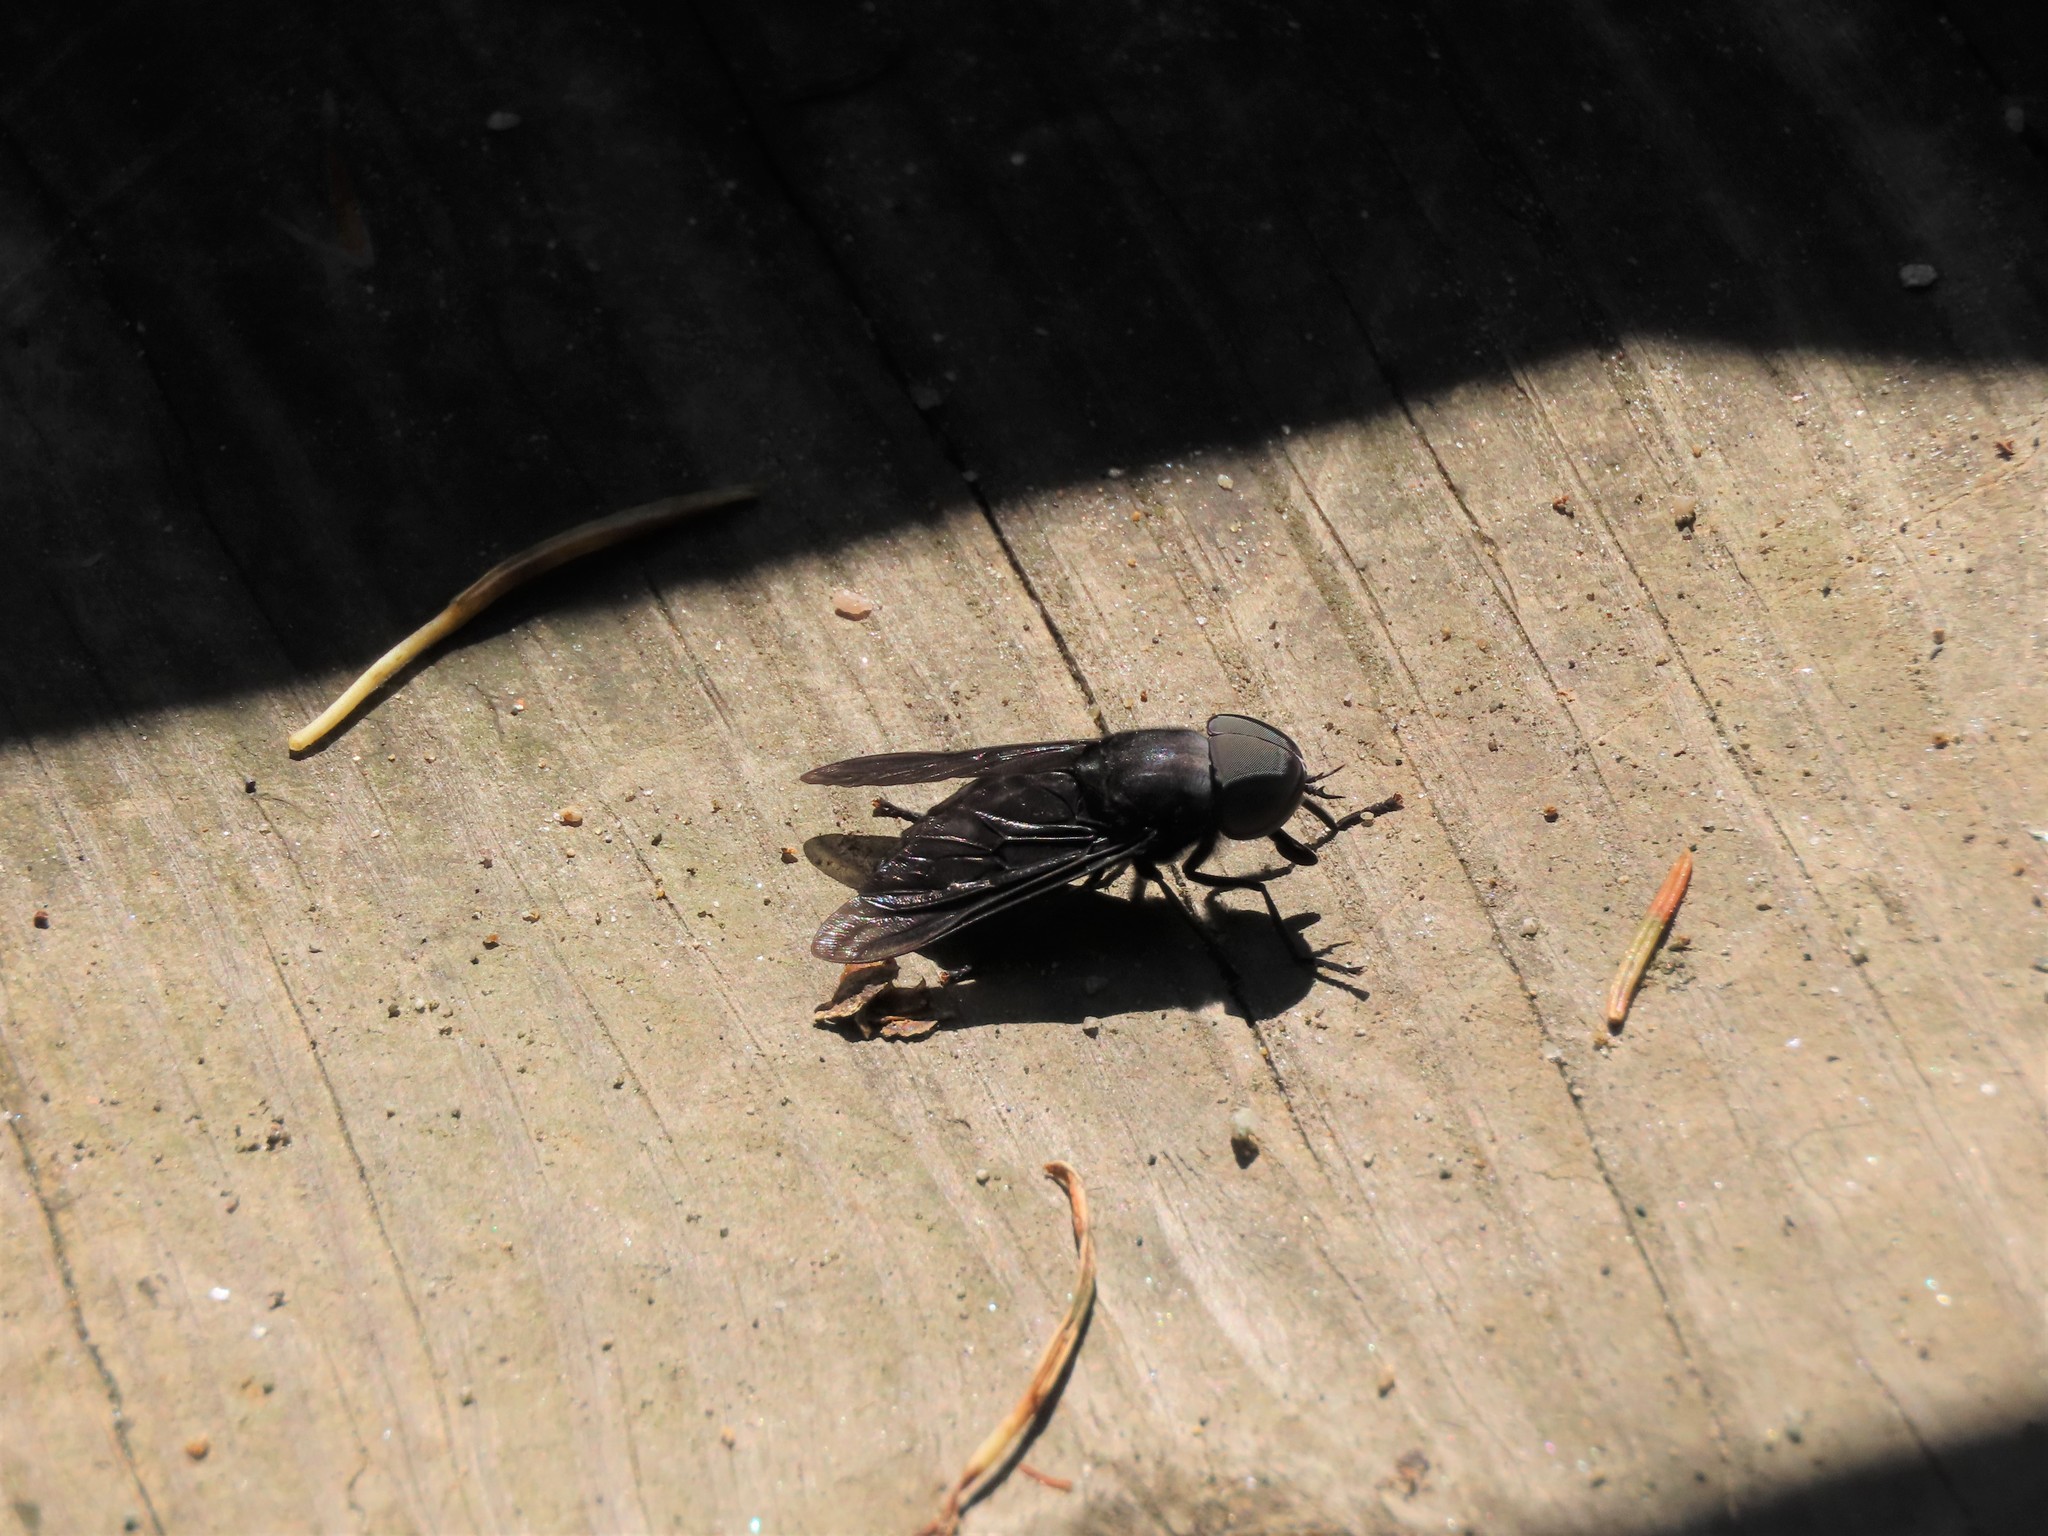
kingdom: Animalia
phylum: Arthropoda
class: Insecta
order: Diptera
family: Tabanidae
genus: Tabanus
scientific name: Tabanus atratus
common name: Black horse fly
